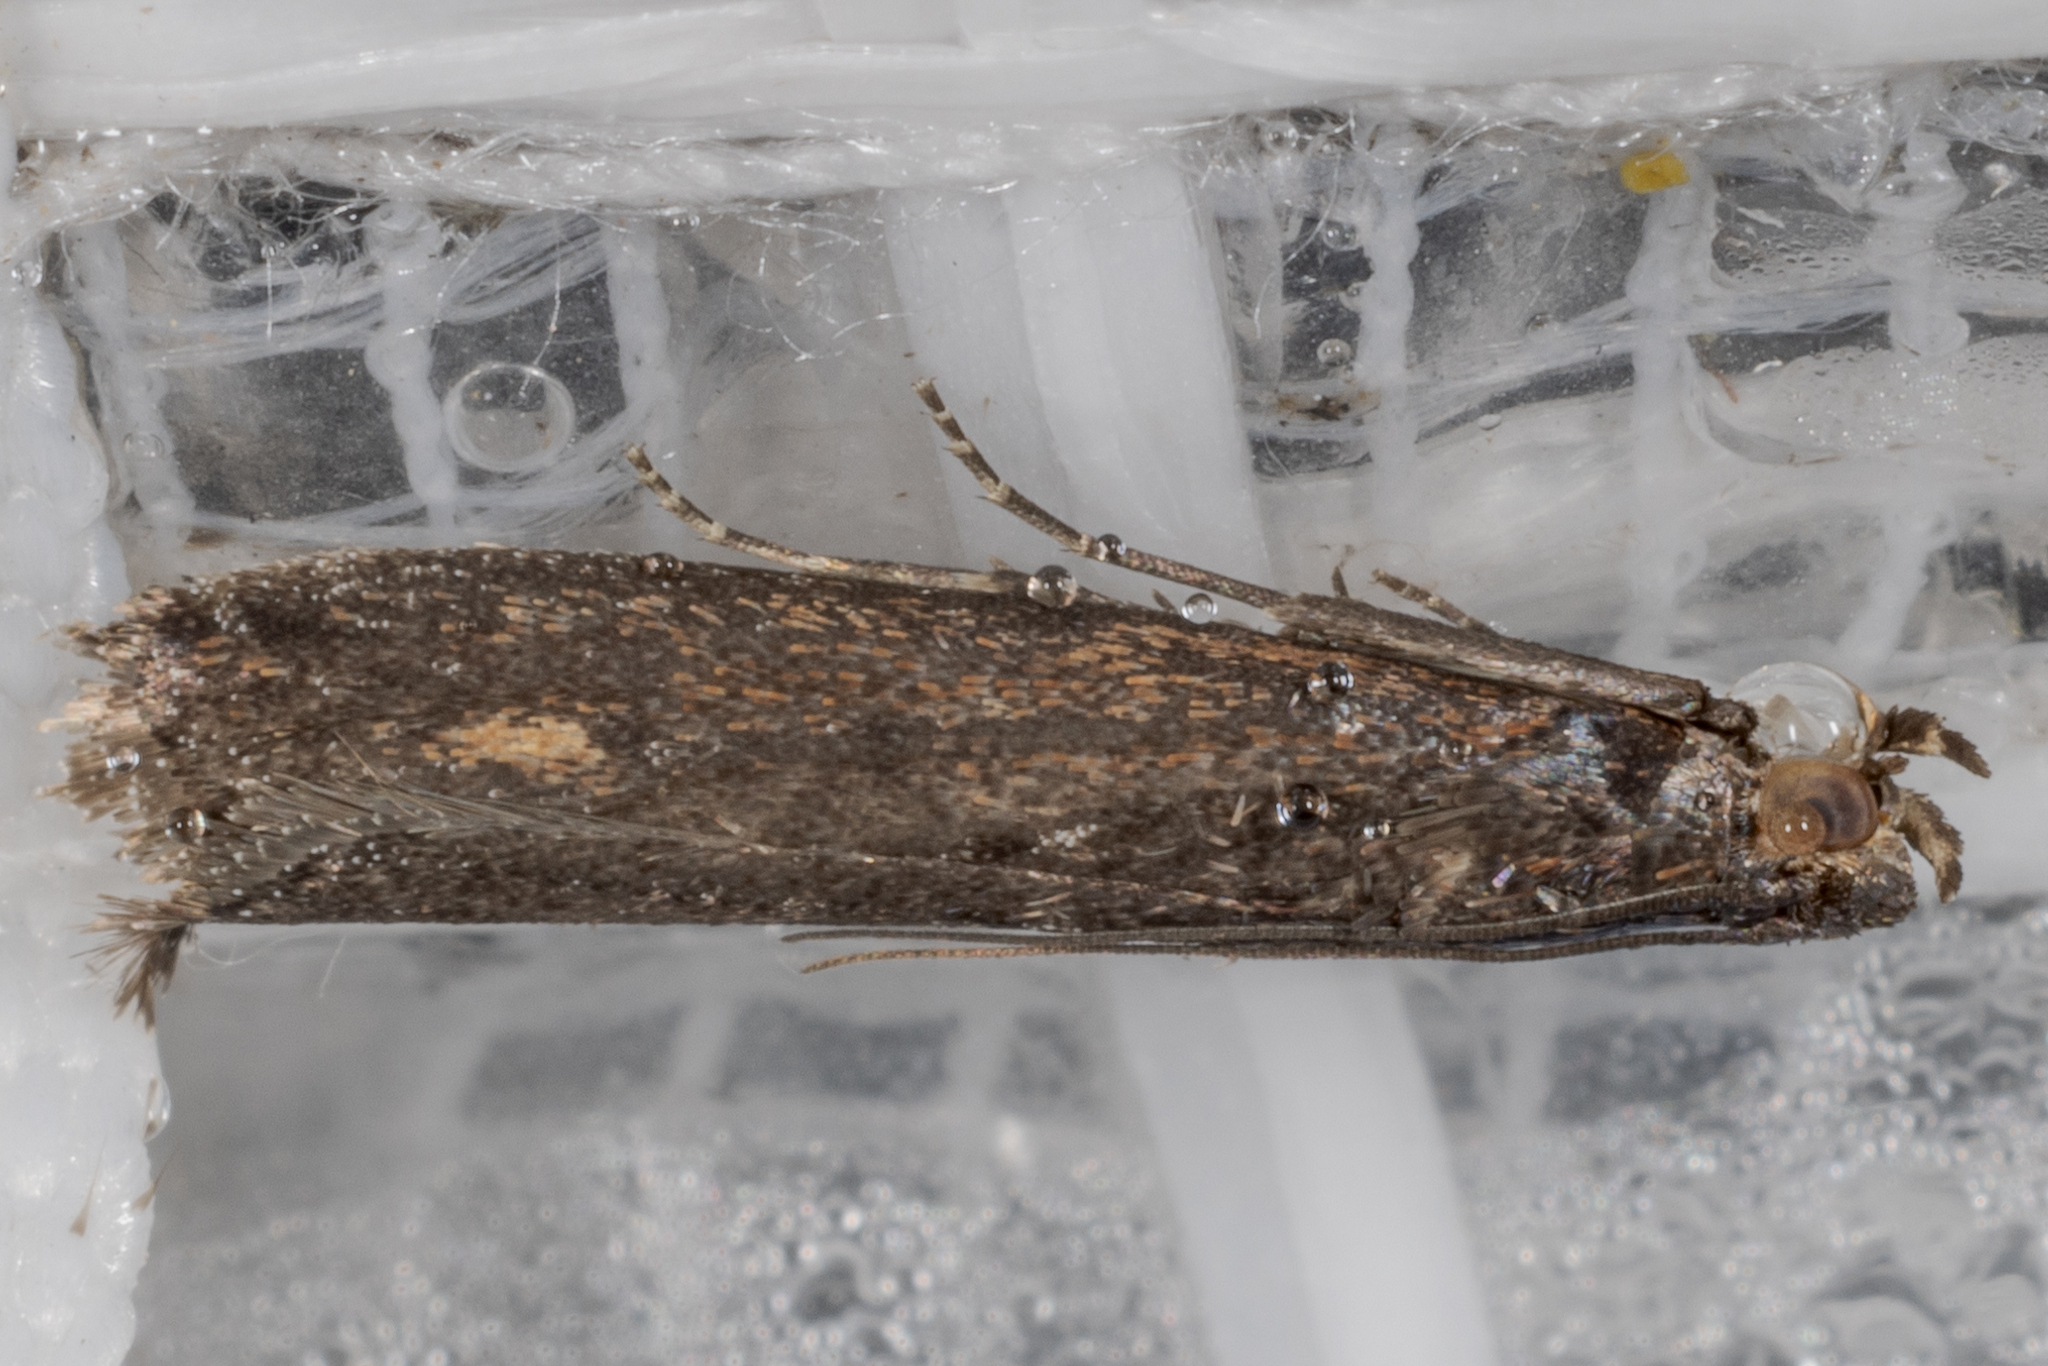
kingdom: Animalia
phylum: Arthropoda
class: Insecta
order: Lepidoptera
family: Pyralidae
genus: Elasmopalpus
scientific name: Elasmopalpus lignosella
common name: Lesser cornstalk borer
